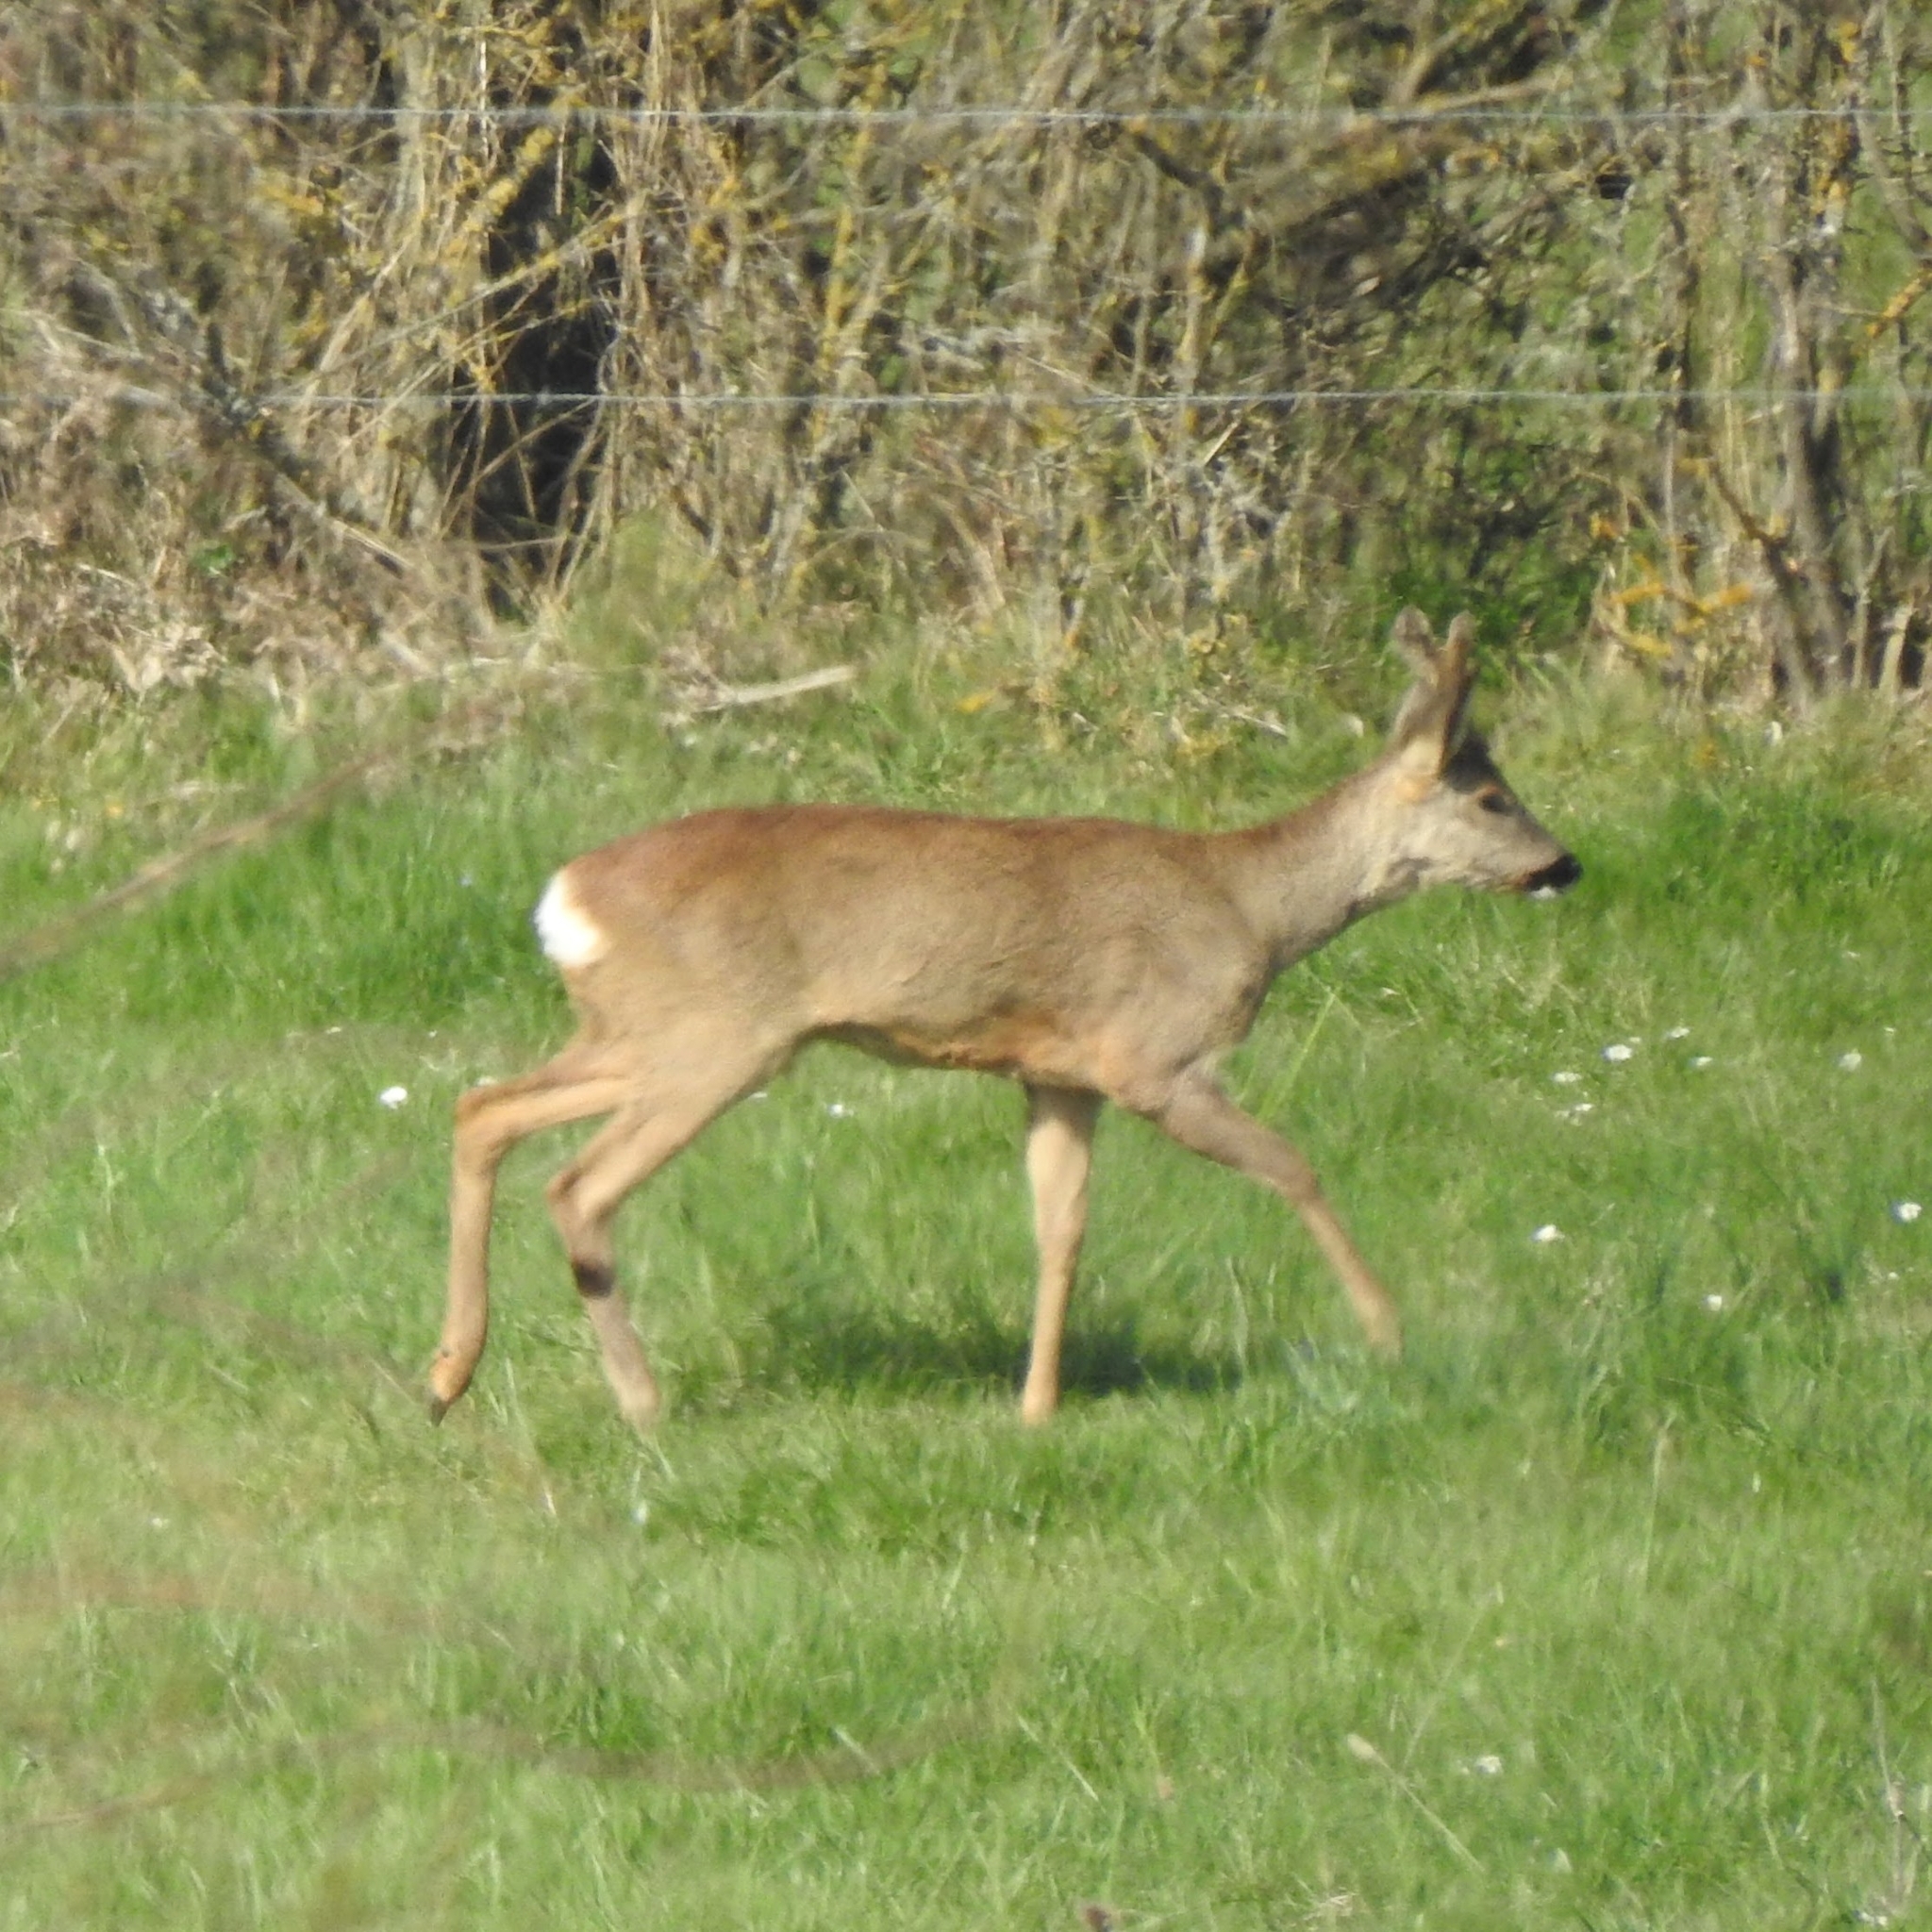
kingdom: Animalia
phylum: Chordata
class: Mammalia
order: Artiodactyla
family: Cervidae
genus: Capreolus
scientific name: Capreolus capreolus
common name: Western roe deer
